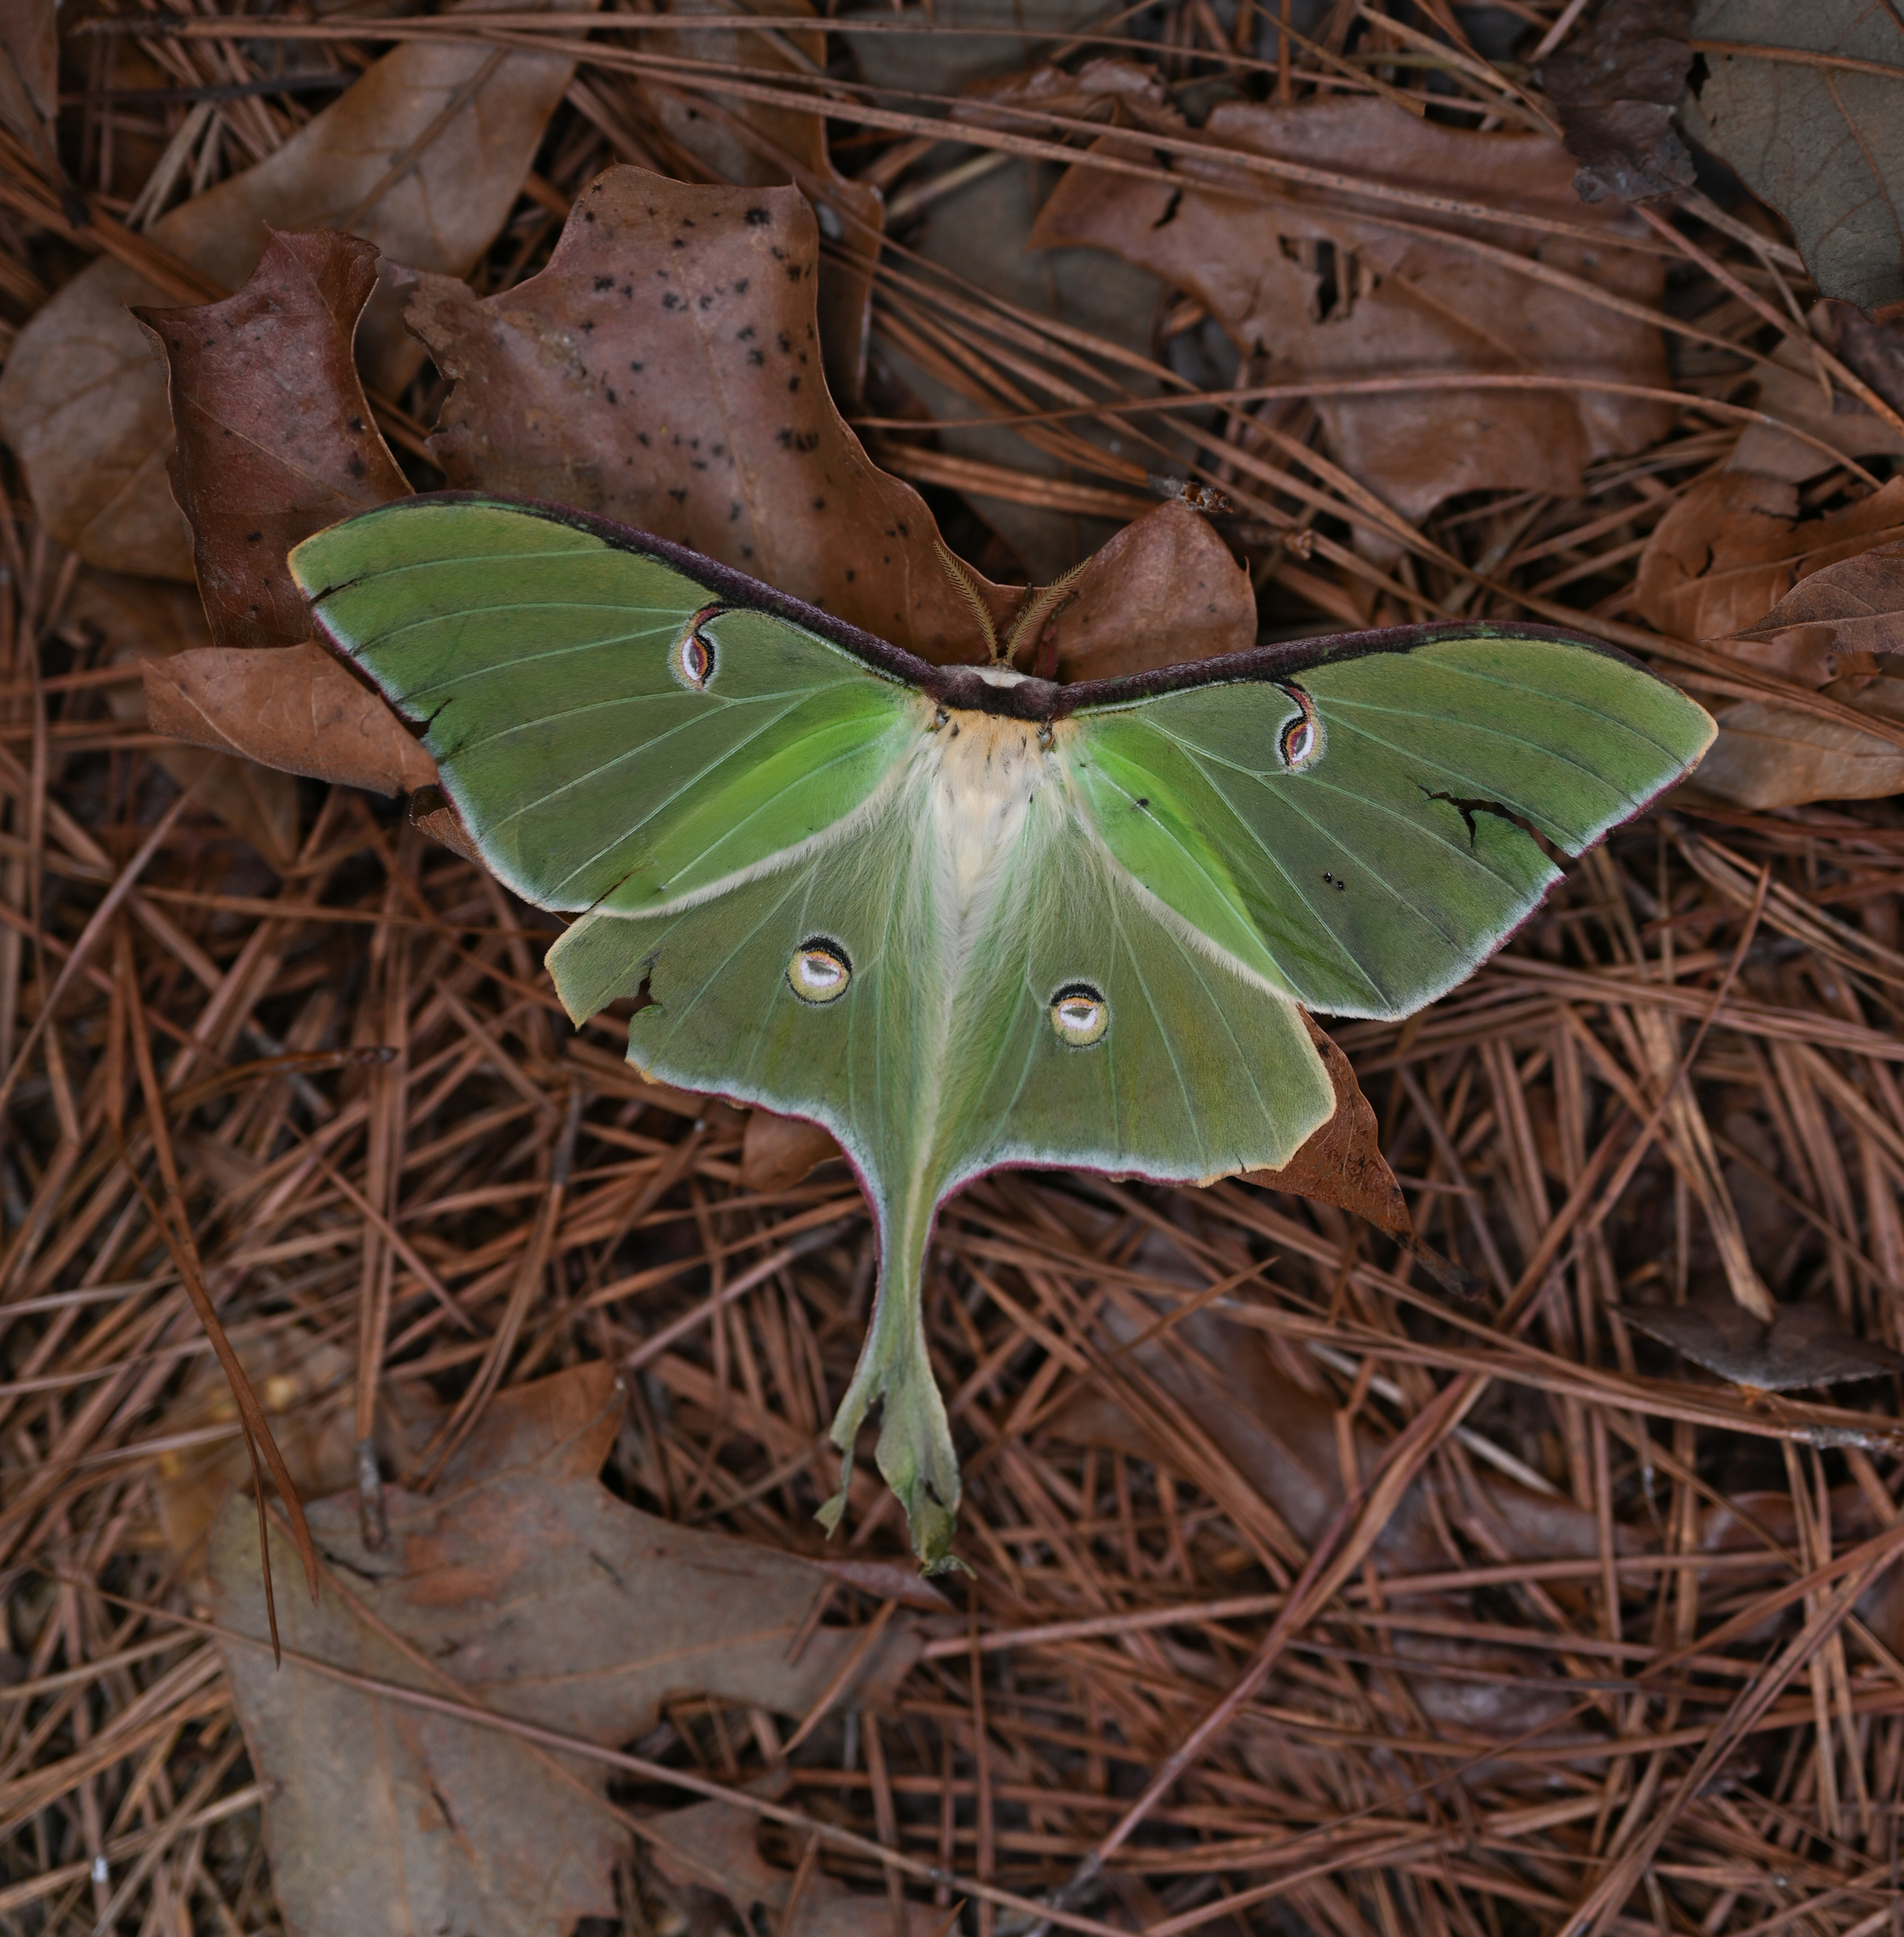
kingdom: Animalia
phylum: Arthropoda
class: Insecta
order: Lepidoptera
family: Saturniidae
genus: Actias
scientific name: Actias luna
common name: Luna moth
